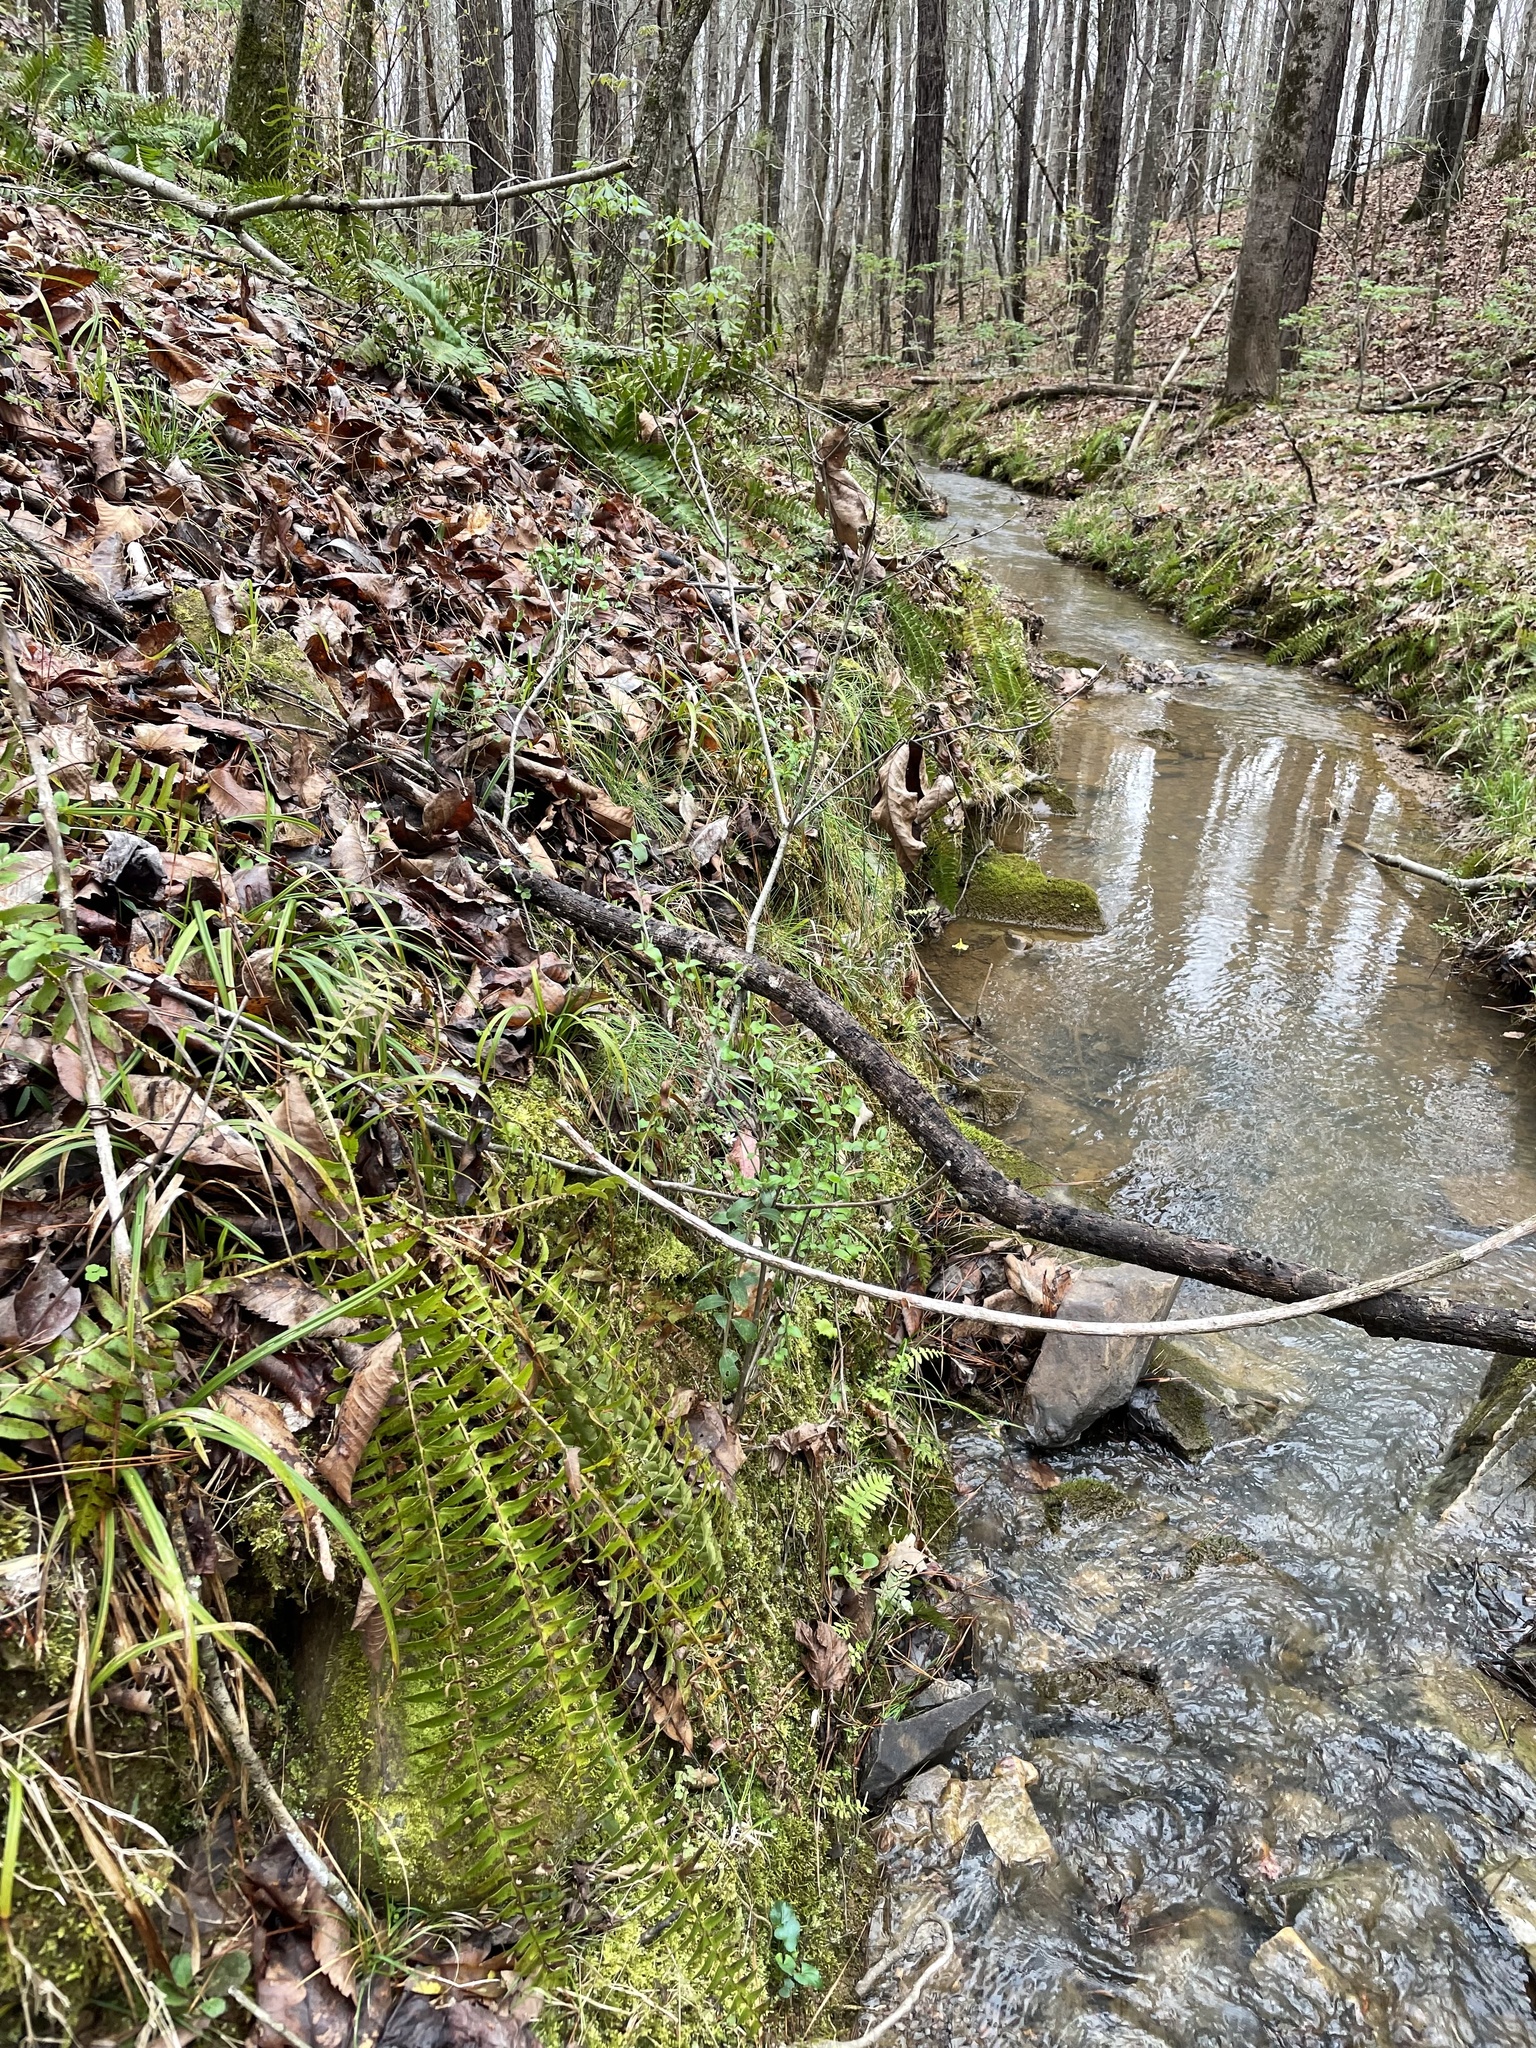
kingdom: Plantae
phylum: Tracheophyta
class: Magnoliopsida
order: Ranunculales
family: Ranunculaceae
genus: Thalictrum
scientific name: Thalictrum thalictroides
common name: Rue-anemone
